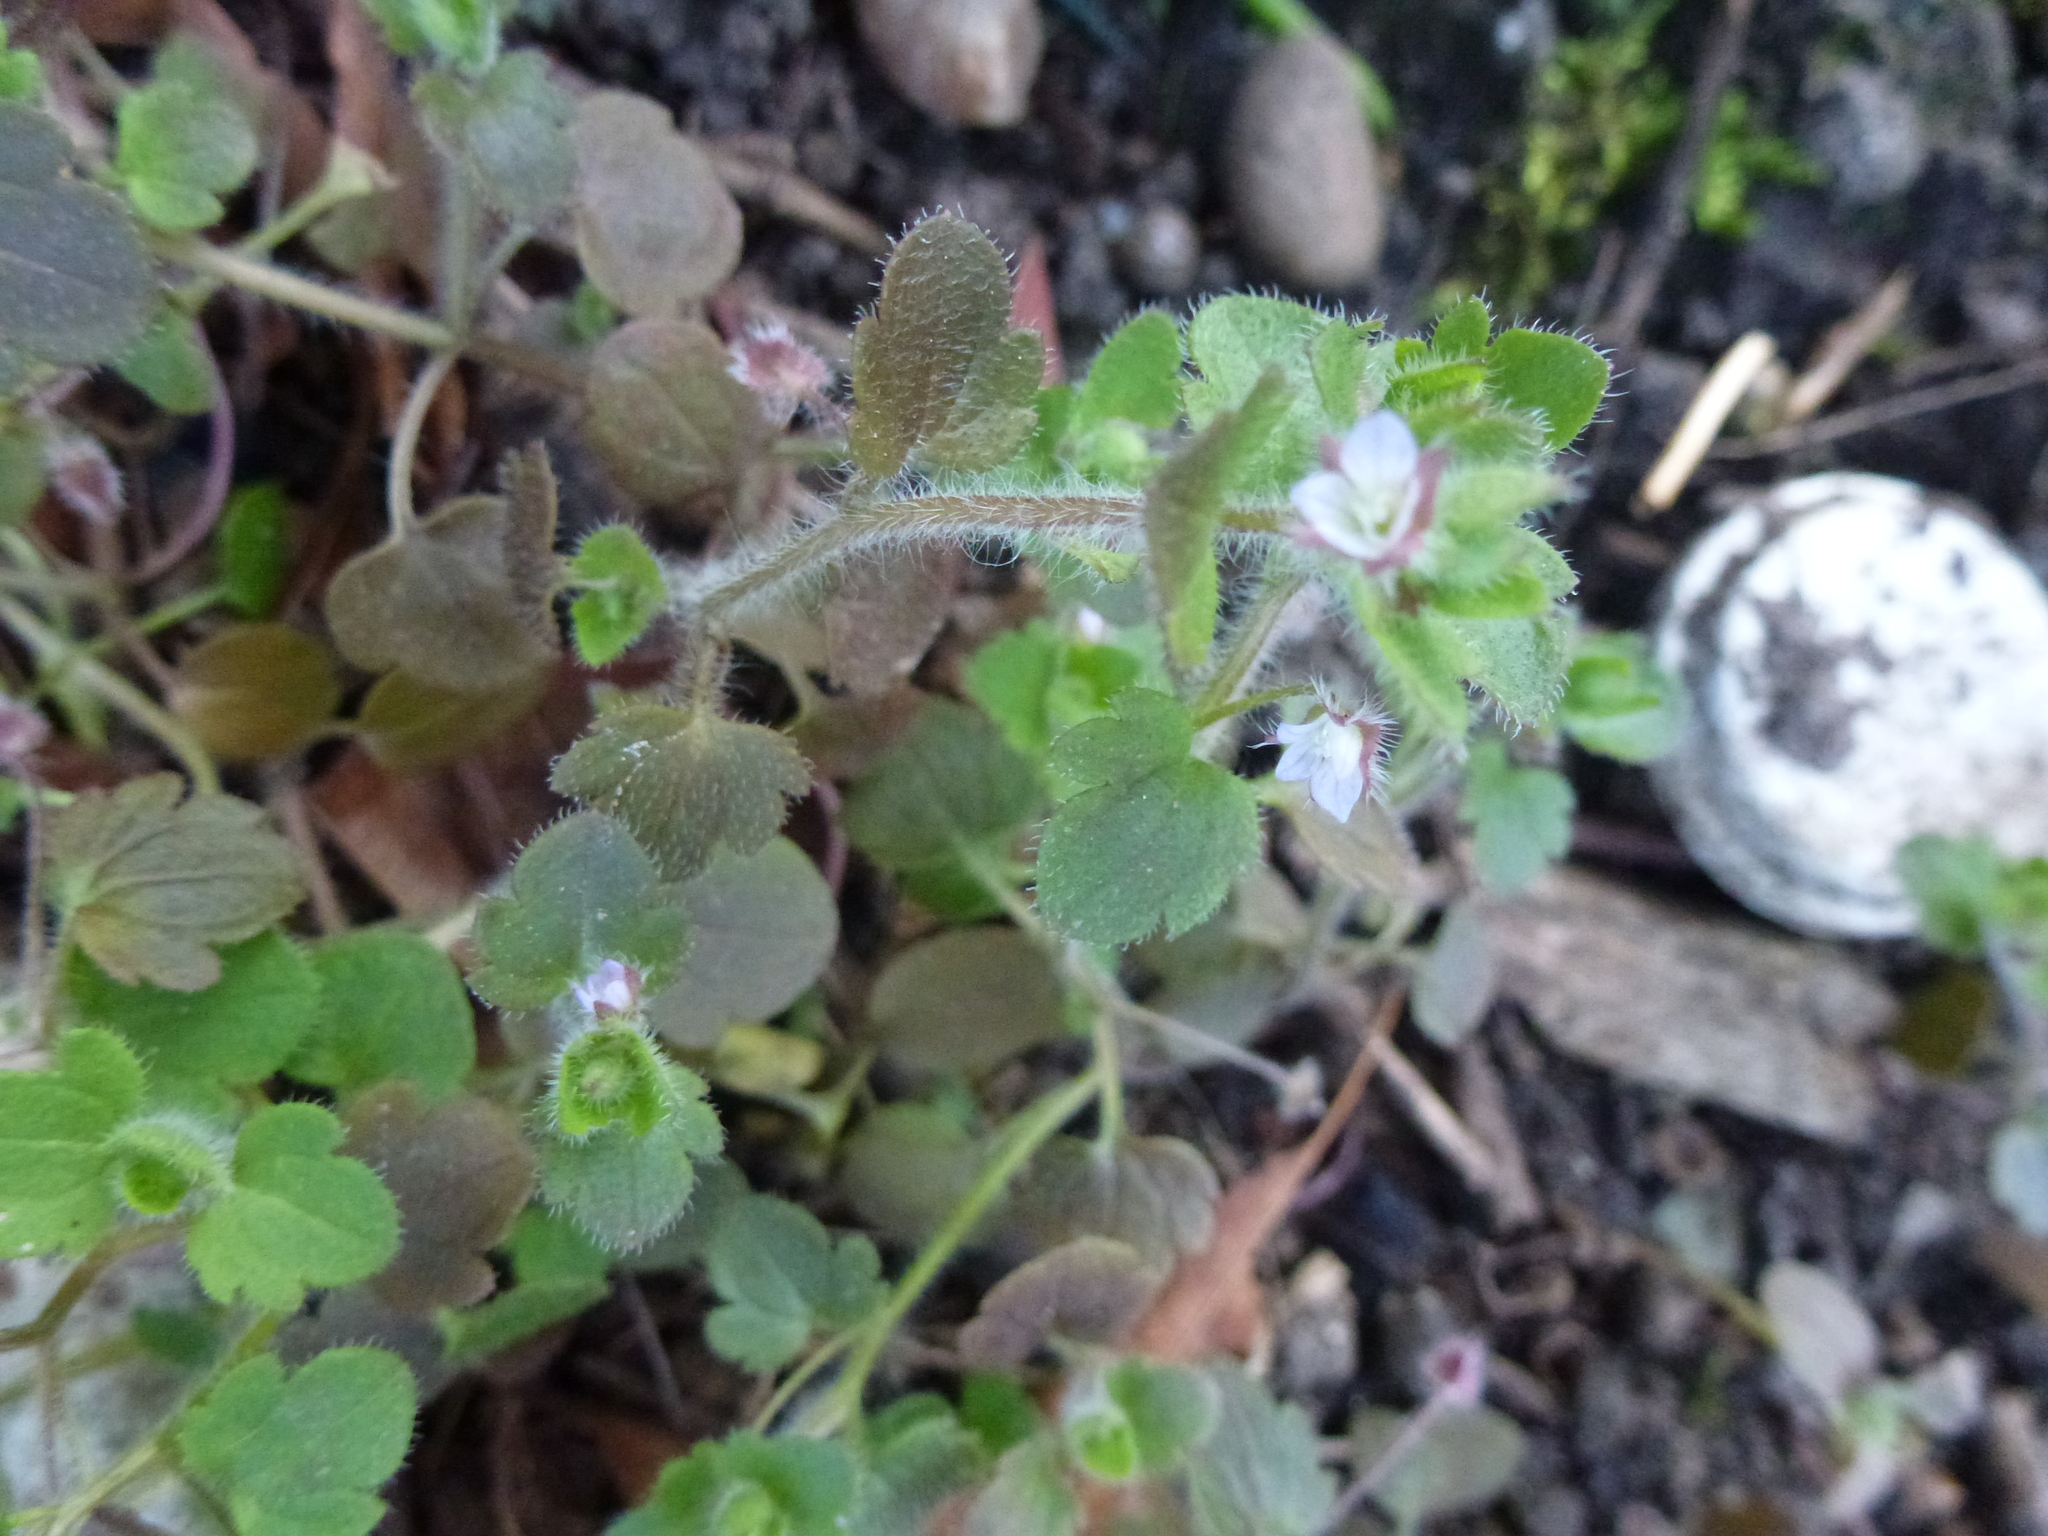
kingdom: Plantae
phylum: Tracheophyta
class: Magnoliopsida
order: Lamiales
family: Plantaginaceae
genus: Veronica
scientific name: Veronica hederifolia
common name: Ivy-leaved speedwell
